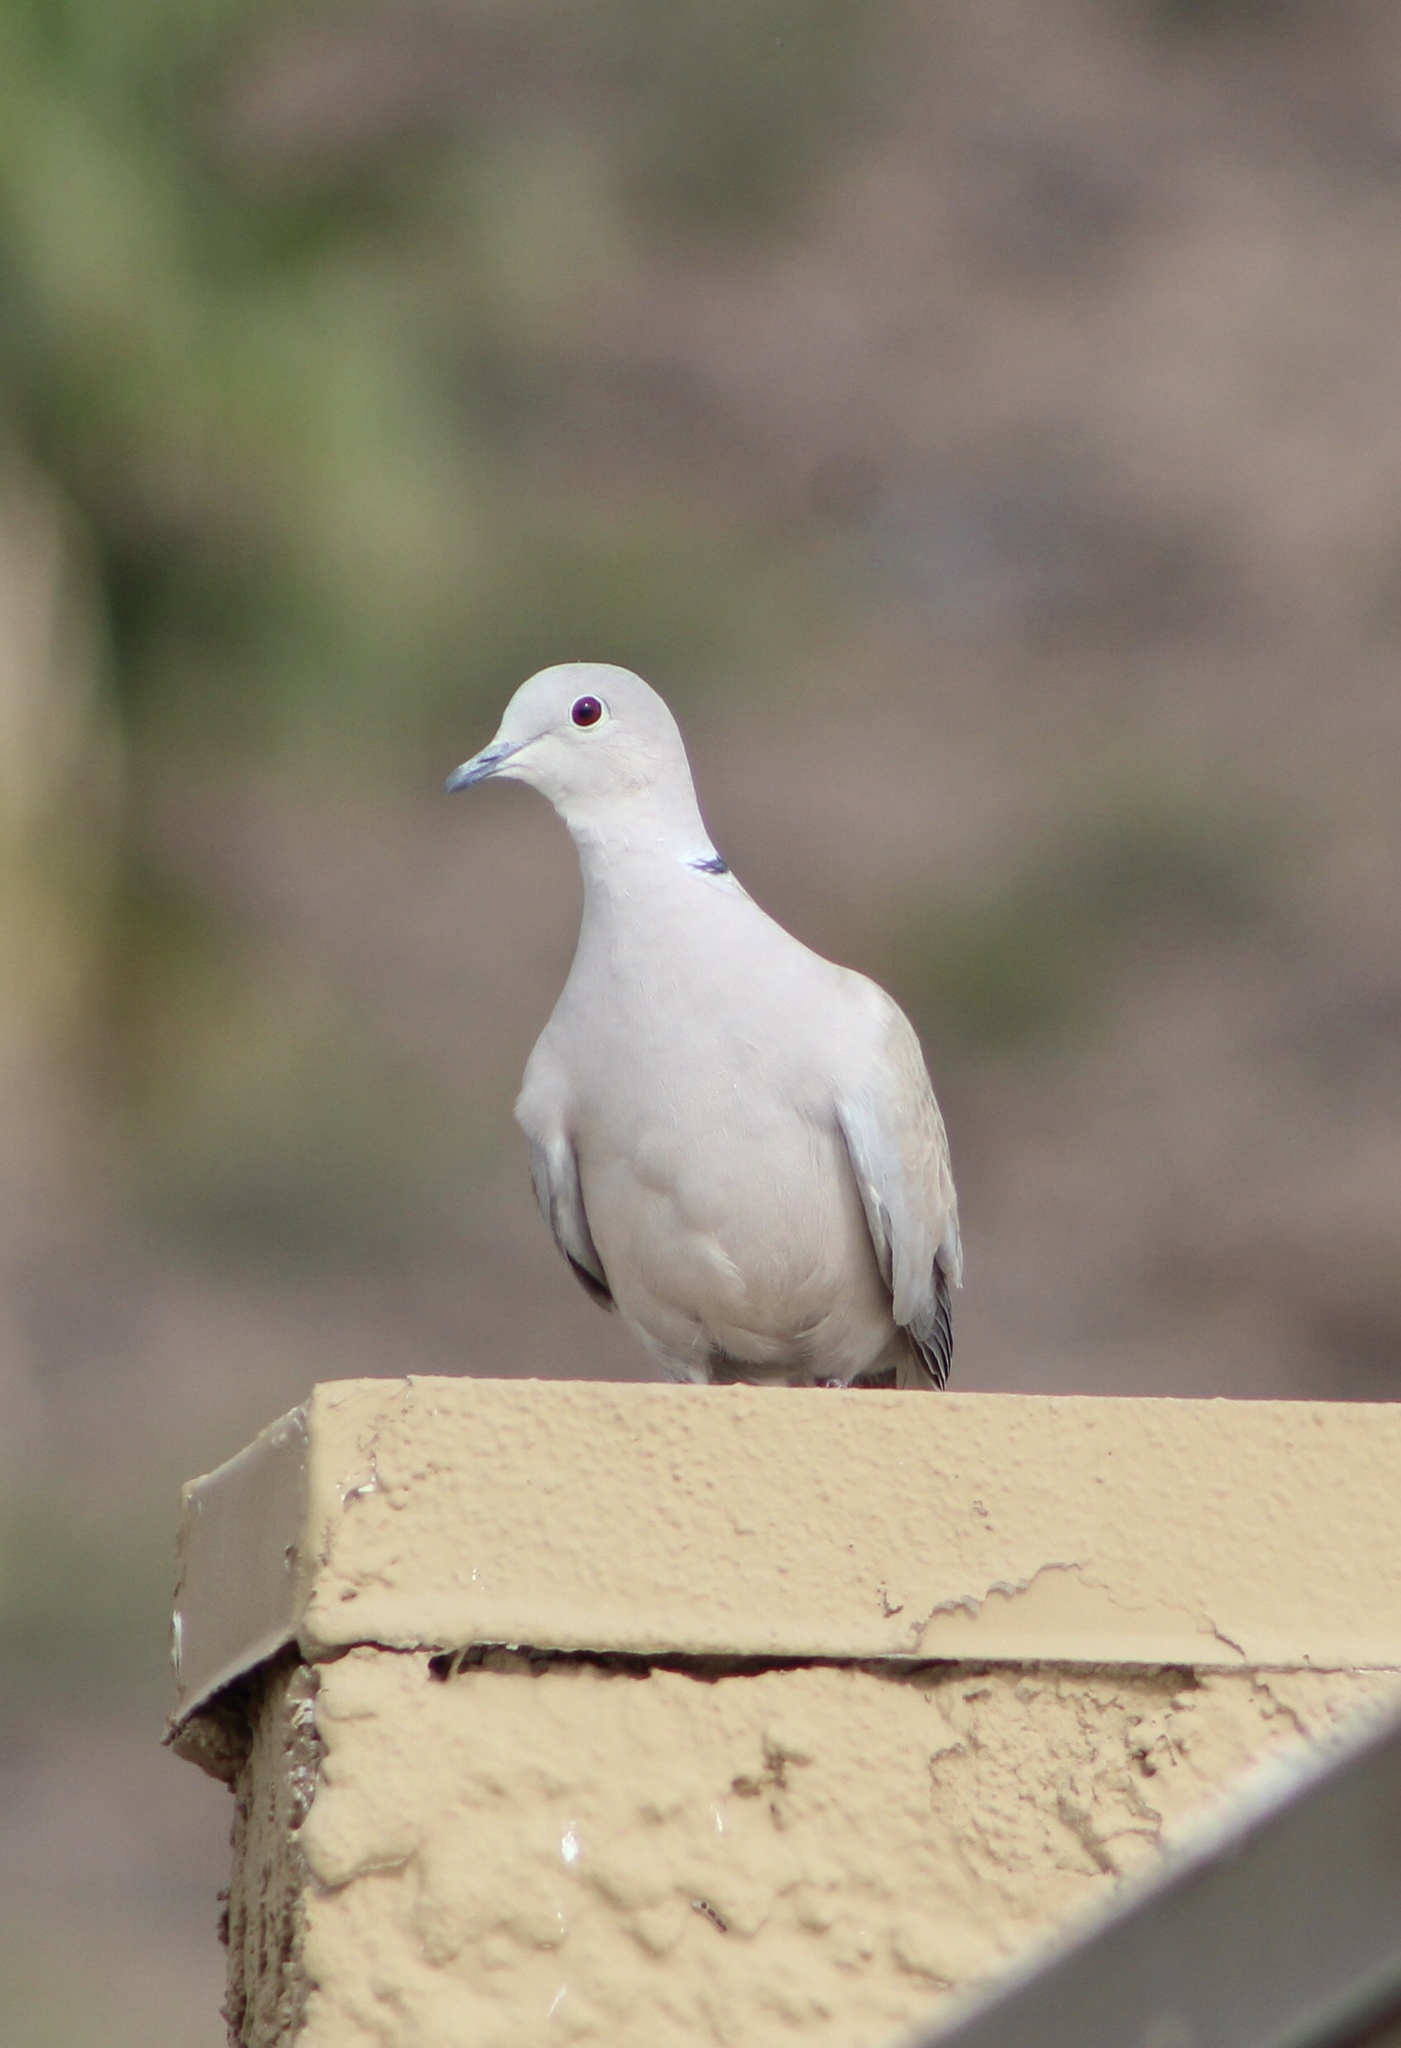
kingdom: Animalia
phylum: Chordata
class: Aves
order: Columbiformes
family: Columbidae
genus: Streptopelia
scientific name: Streptopelia decaocto
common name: Eurasian collared dove
